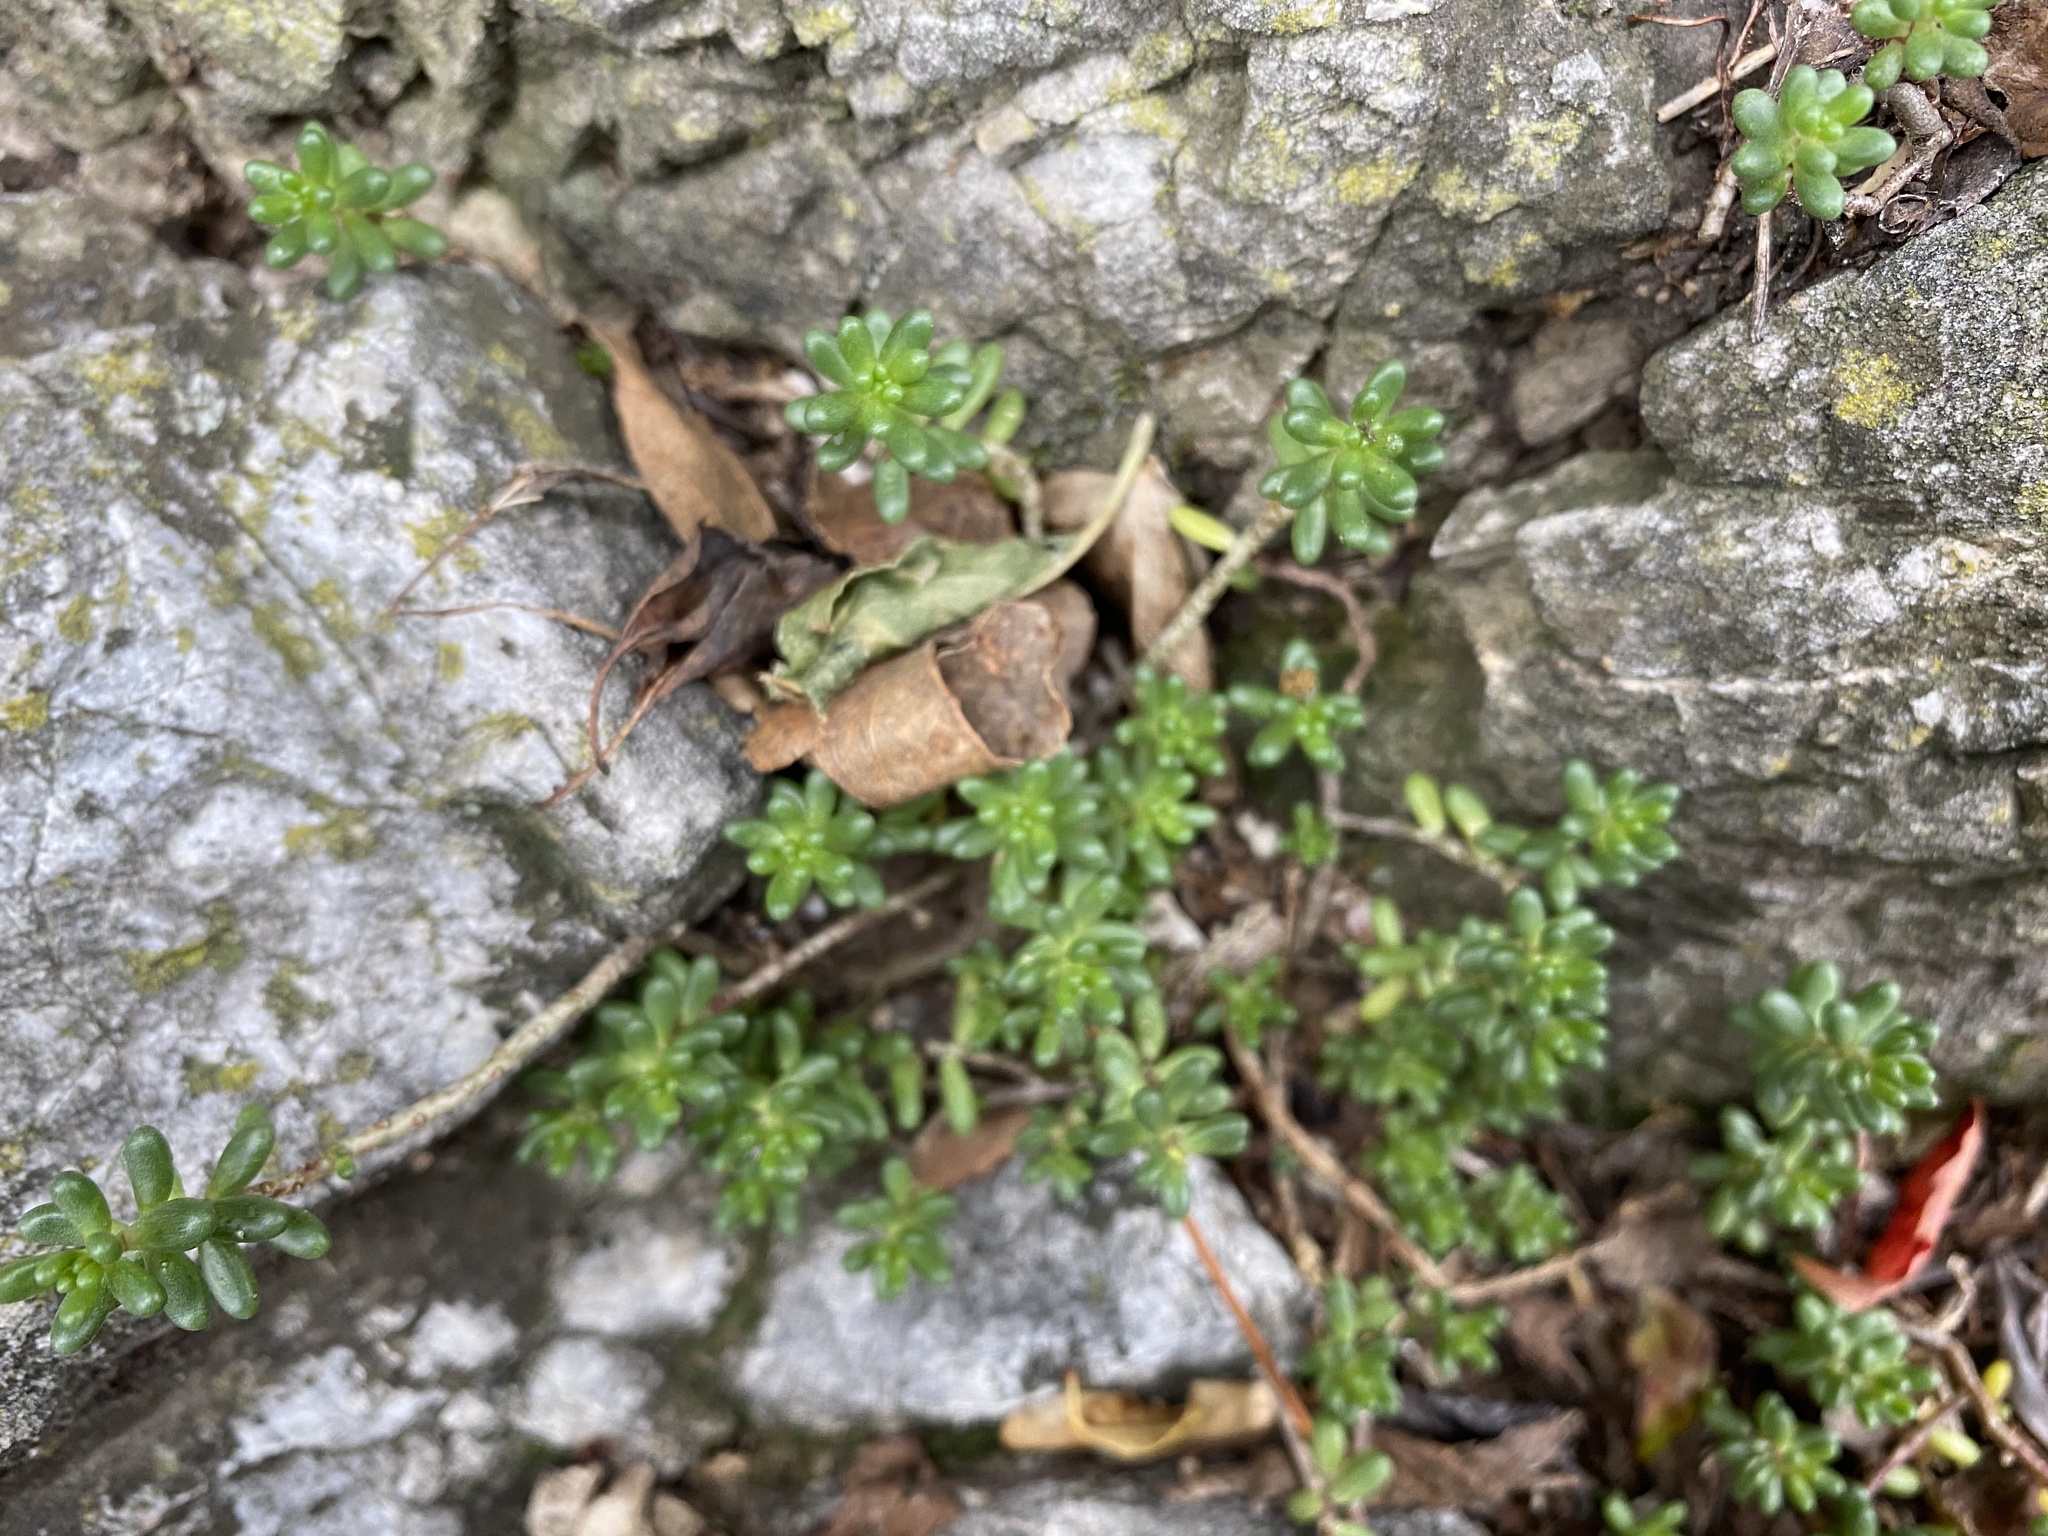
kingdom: Plantae
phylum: Tracheophyta
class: Magnoliopsida
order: Saxifragales
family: Crassulaceae
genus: Sedum
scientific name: Sedum album
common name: White stonecrop
